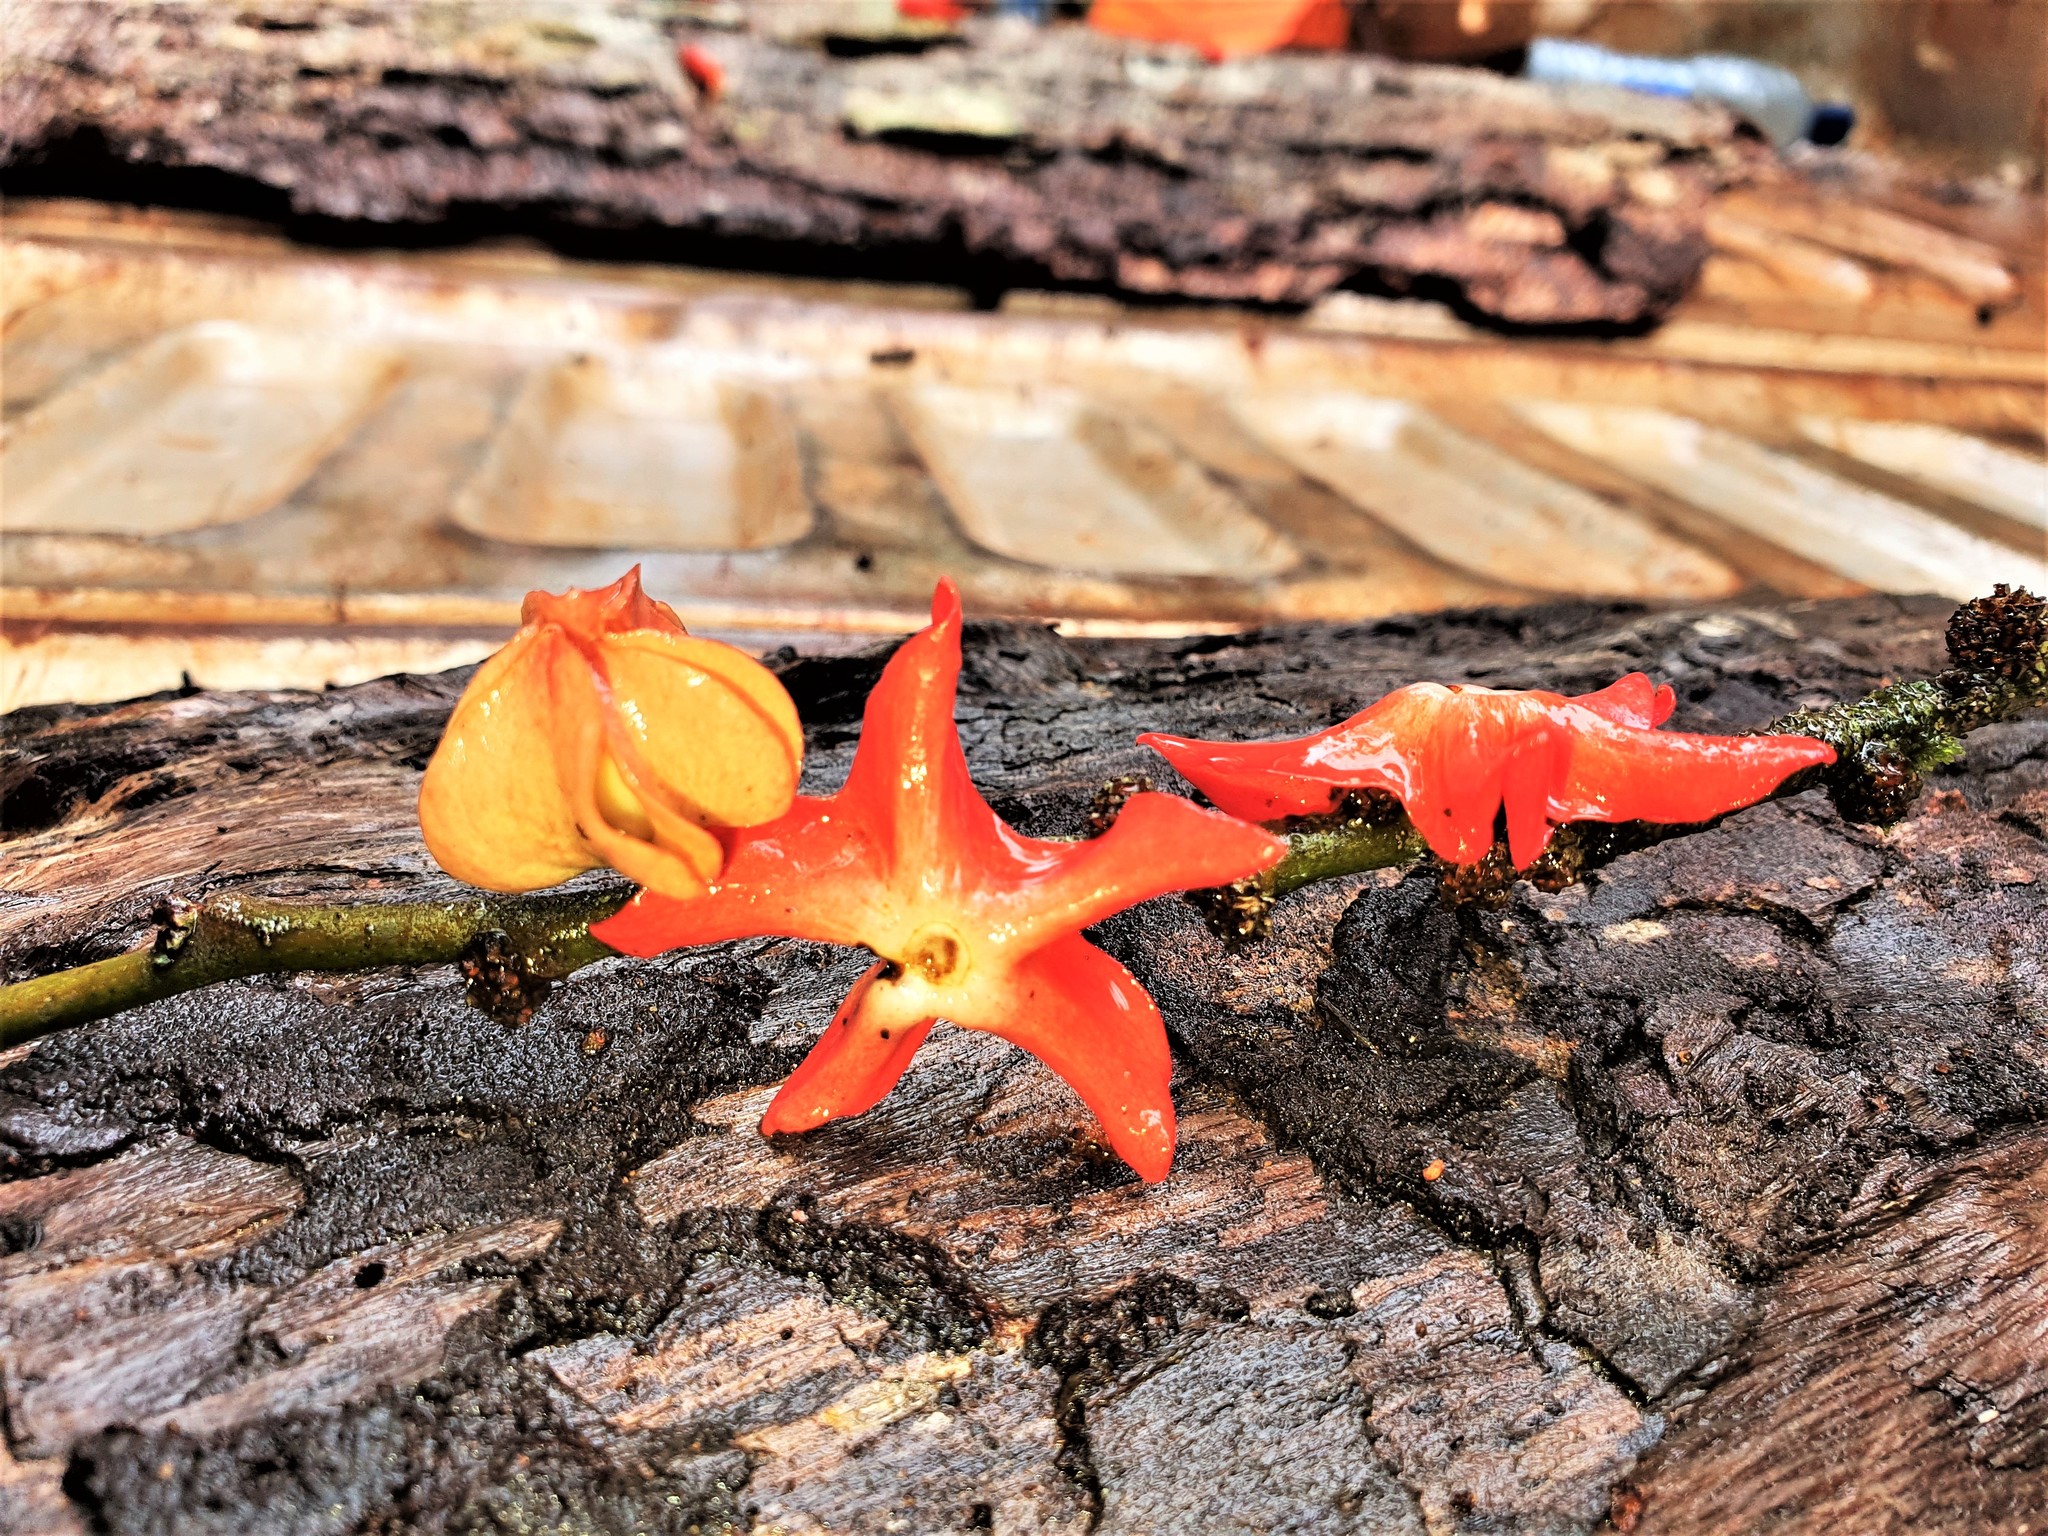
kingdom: Plantae
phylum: Tracheophyta
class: Magnoliopsida
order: Santalales
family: Erythropalaceae
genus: Heisteria
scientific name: Heisteria insculpta
